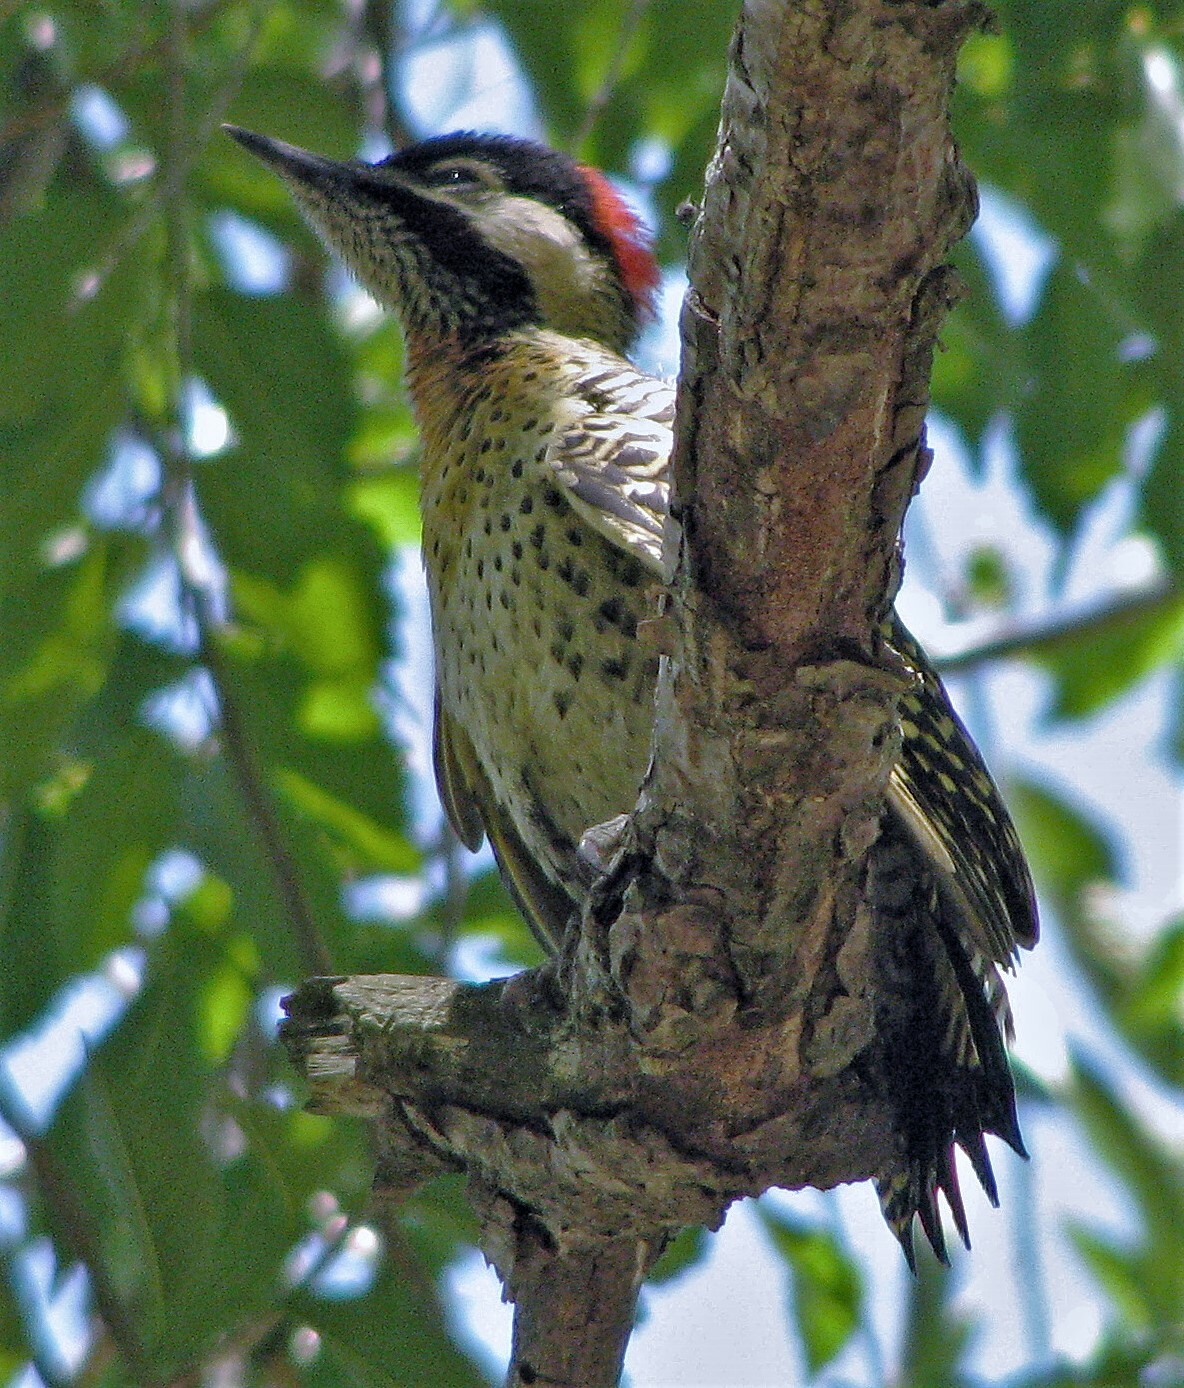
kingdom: Animalia
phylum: Chordata
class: Aves
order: Piciformes
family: Picidae
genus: Colaptes
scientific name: Colaptes melanochloros
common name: Green-barred woodpecker
